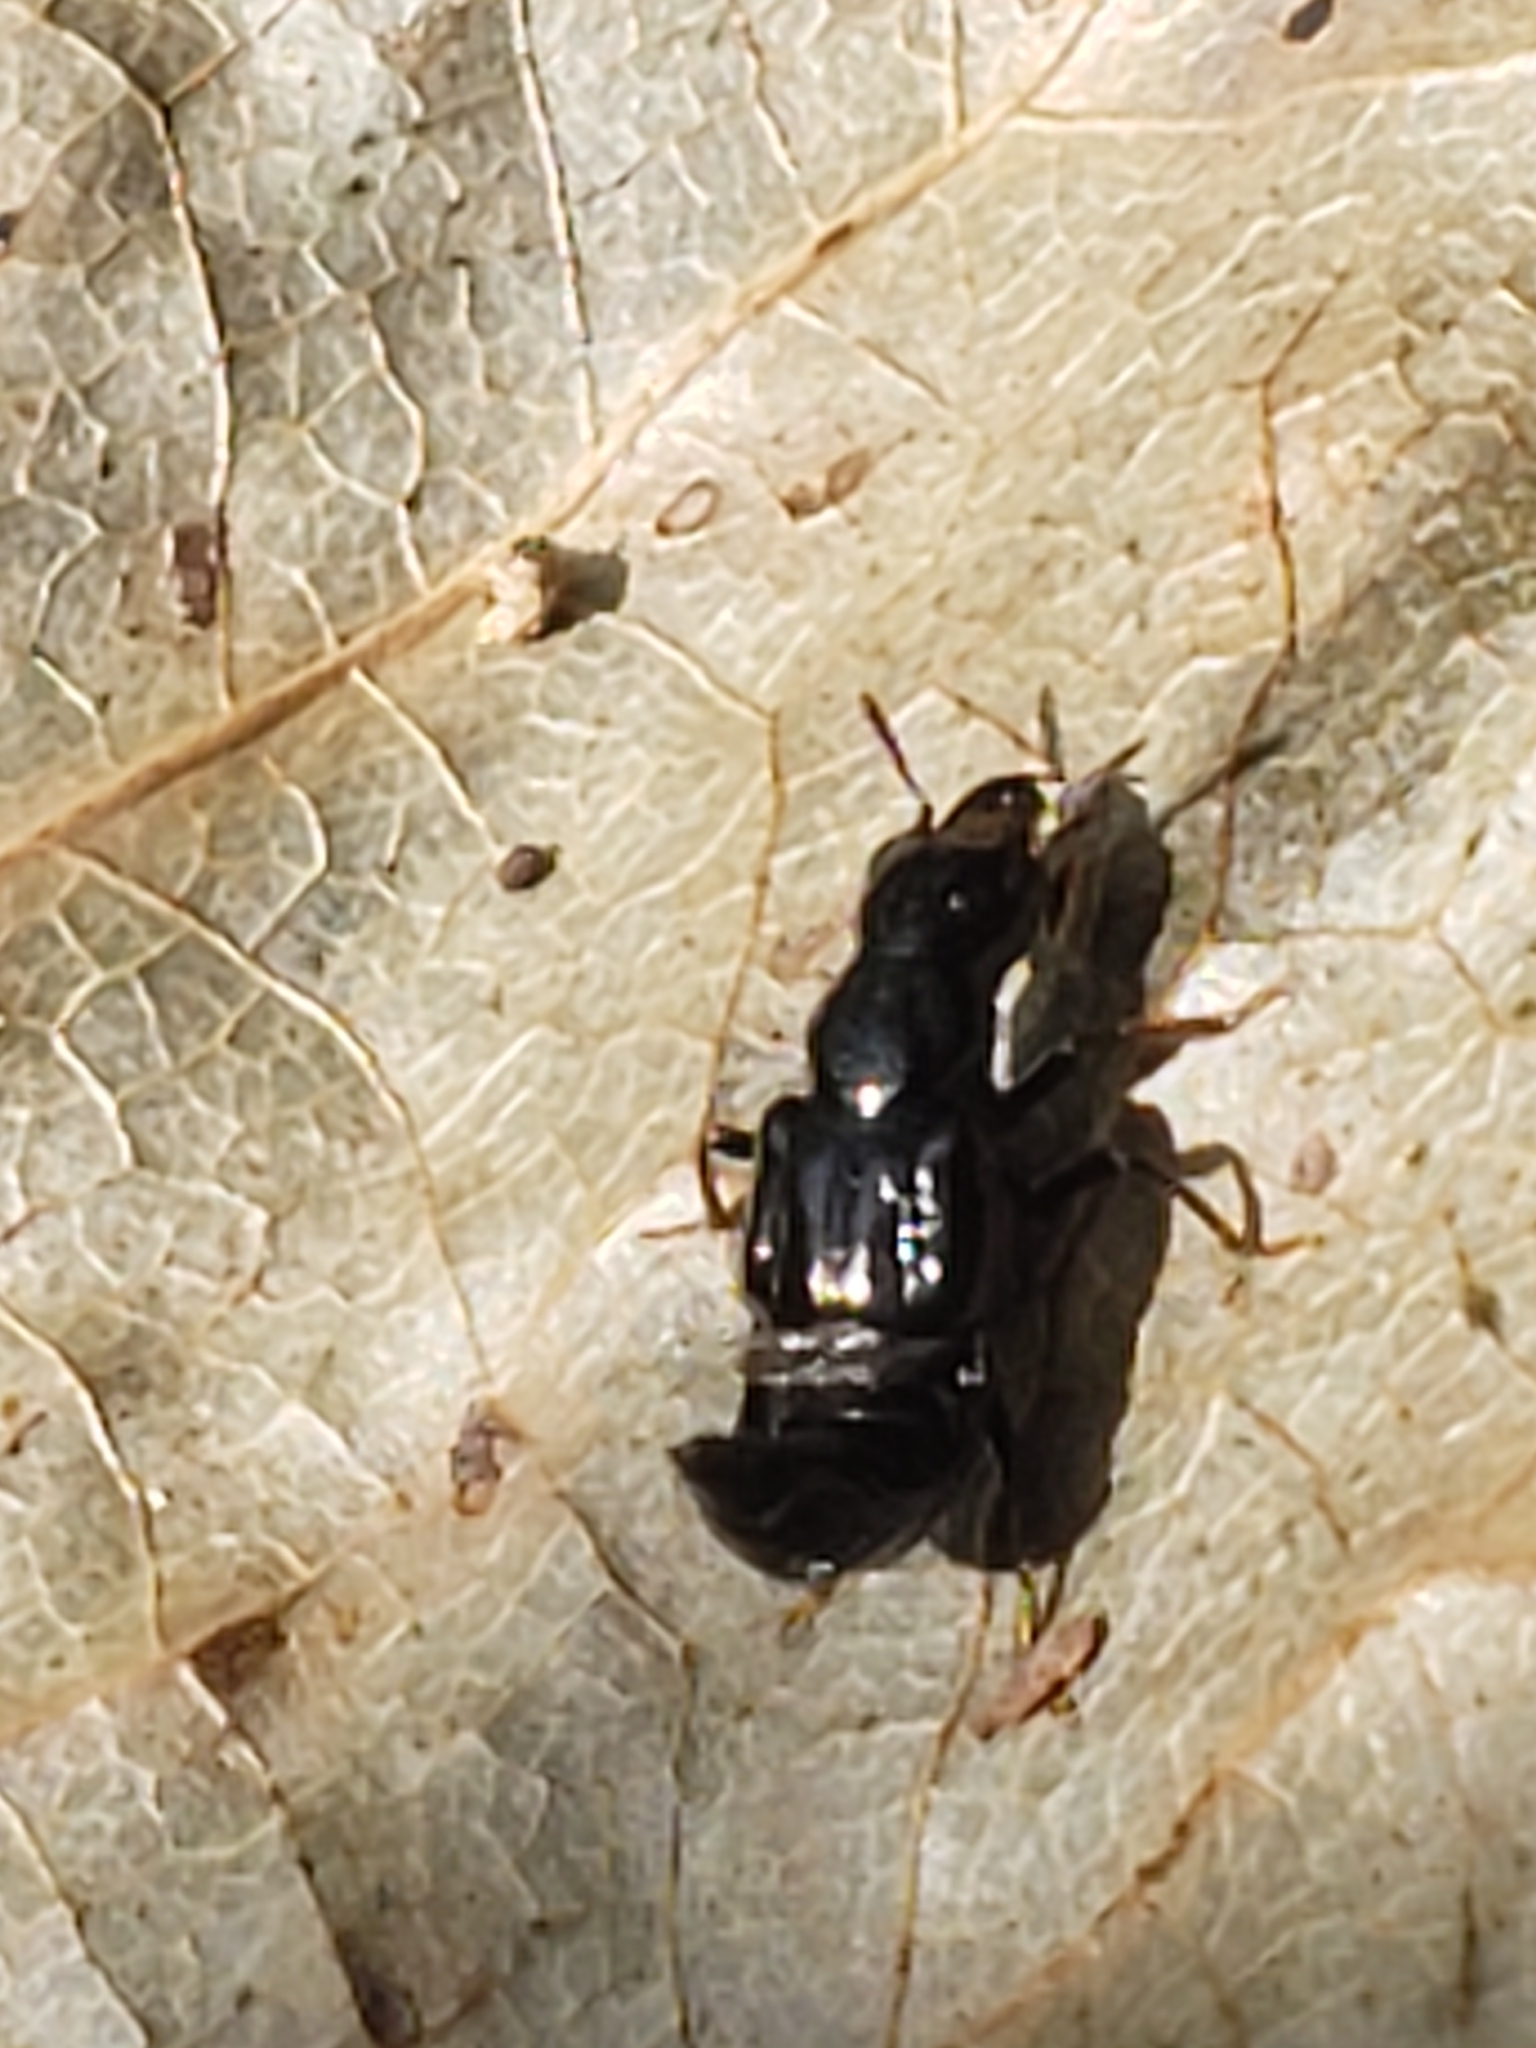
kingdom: Animalia
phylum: Arthropoda
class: Insecta
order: Coleoptera
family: Staphylinidae
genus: Oxyporus
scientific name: Oxyporus stygicus
